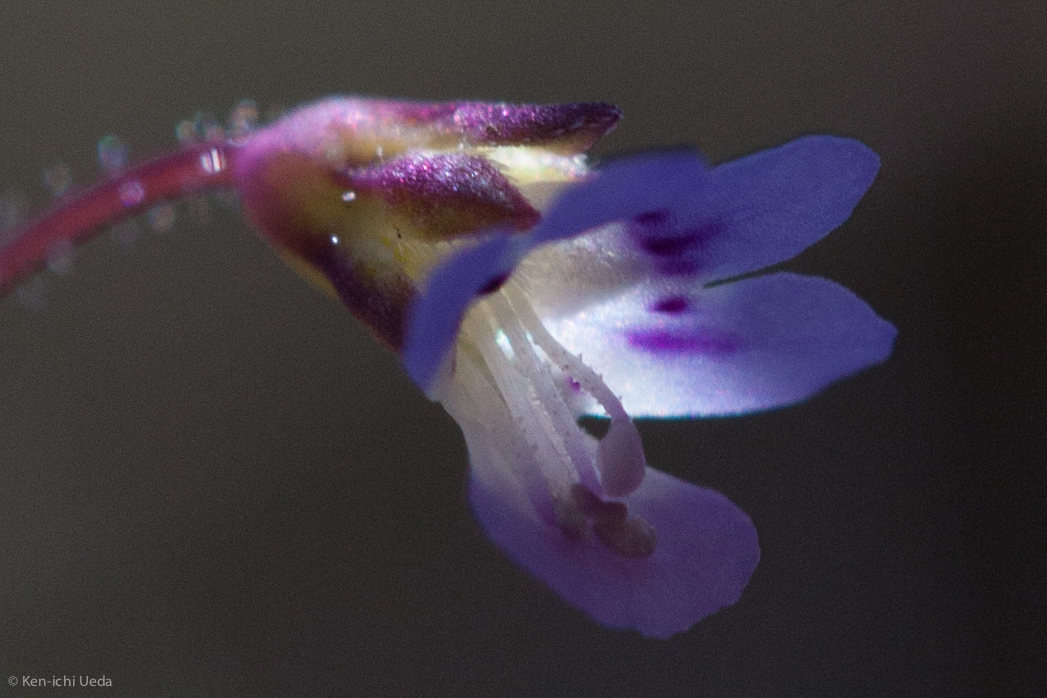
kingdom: Plantae
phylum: Tracheophyta
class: Magnoliopsida
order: Lamiales
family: Plantaginaceae
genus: Tonella
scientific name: Tonella tenella
